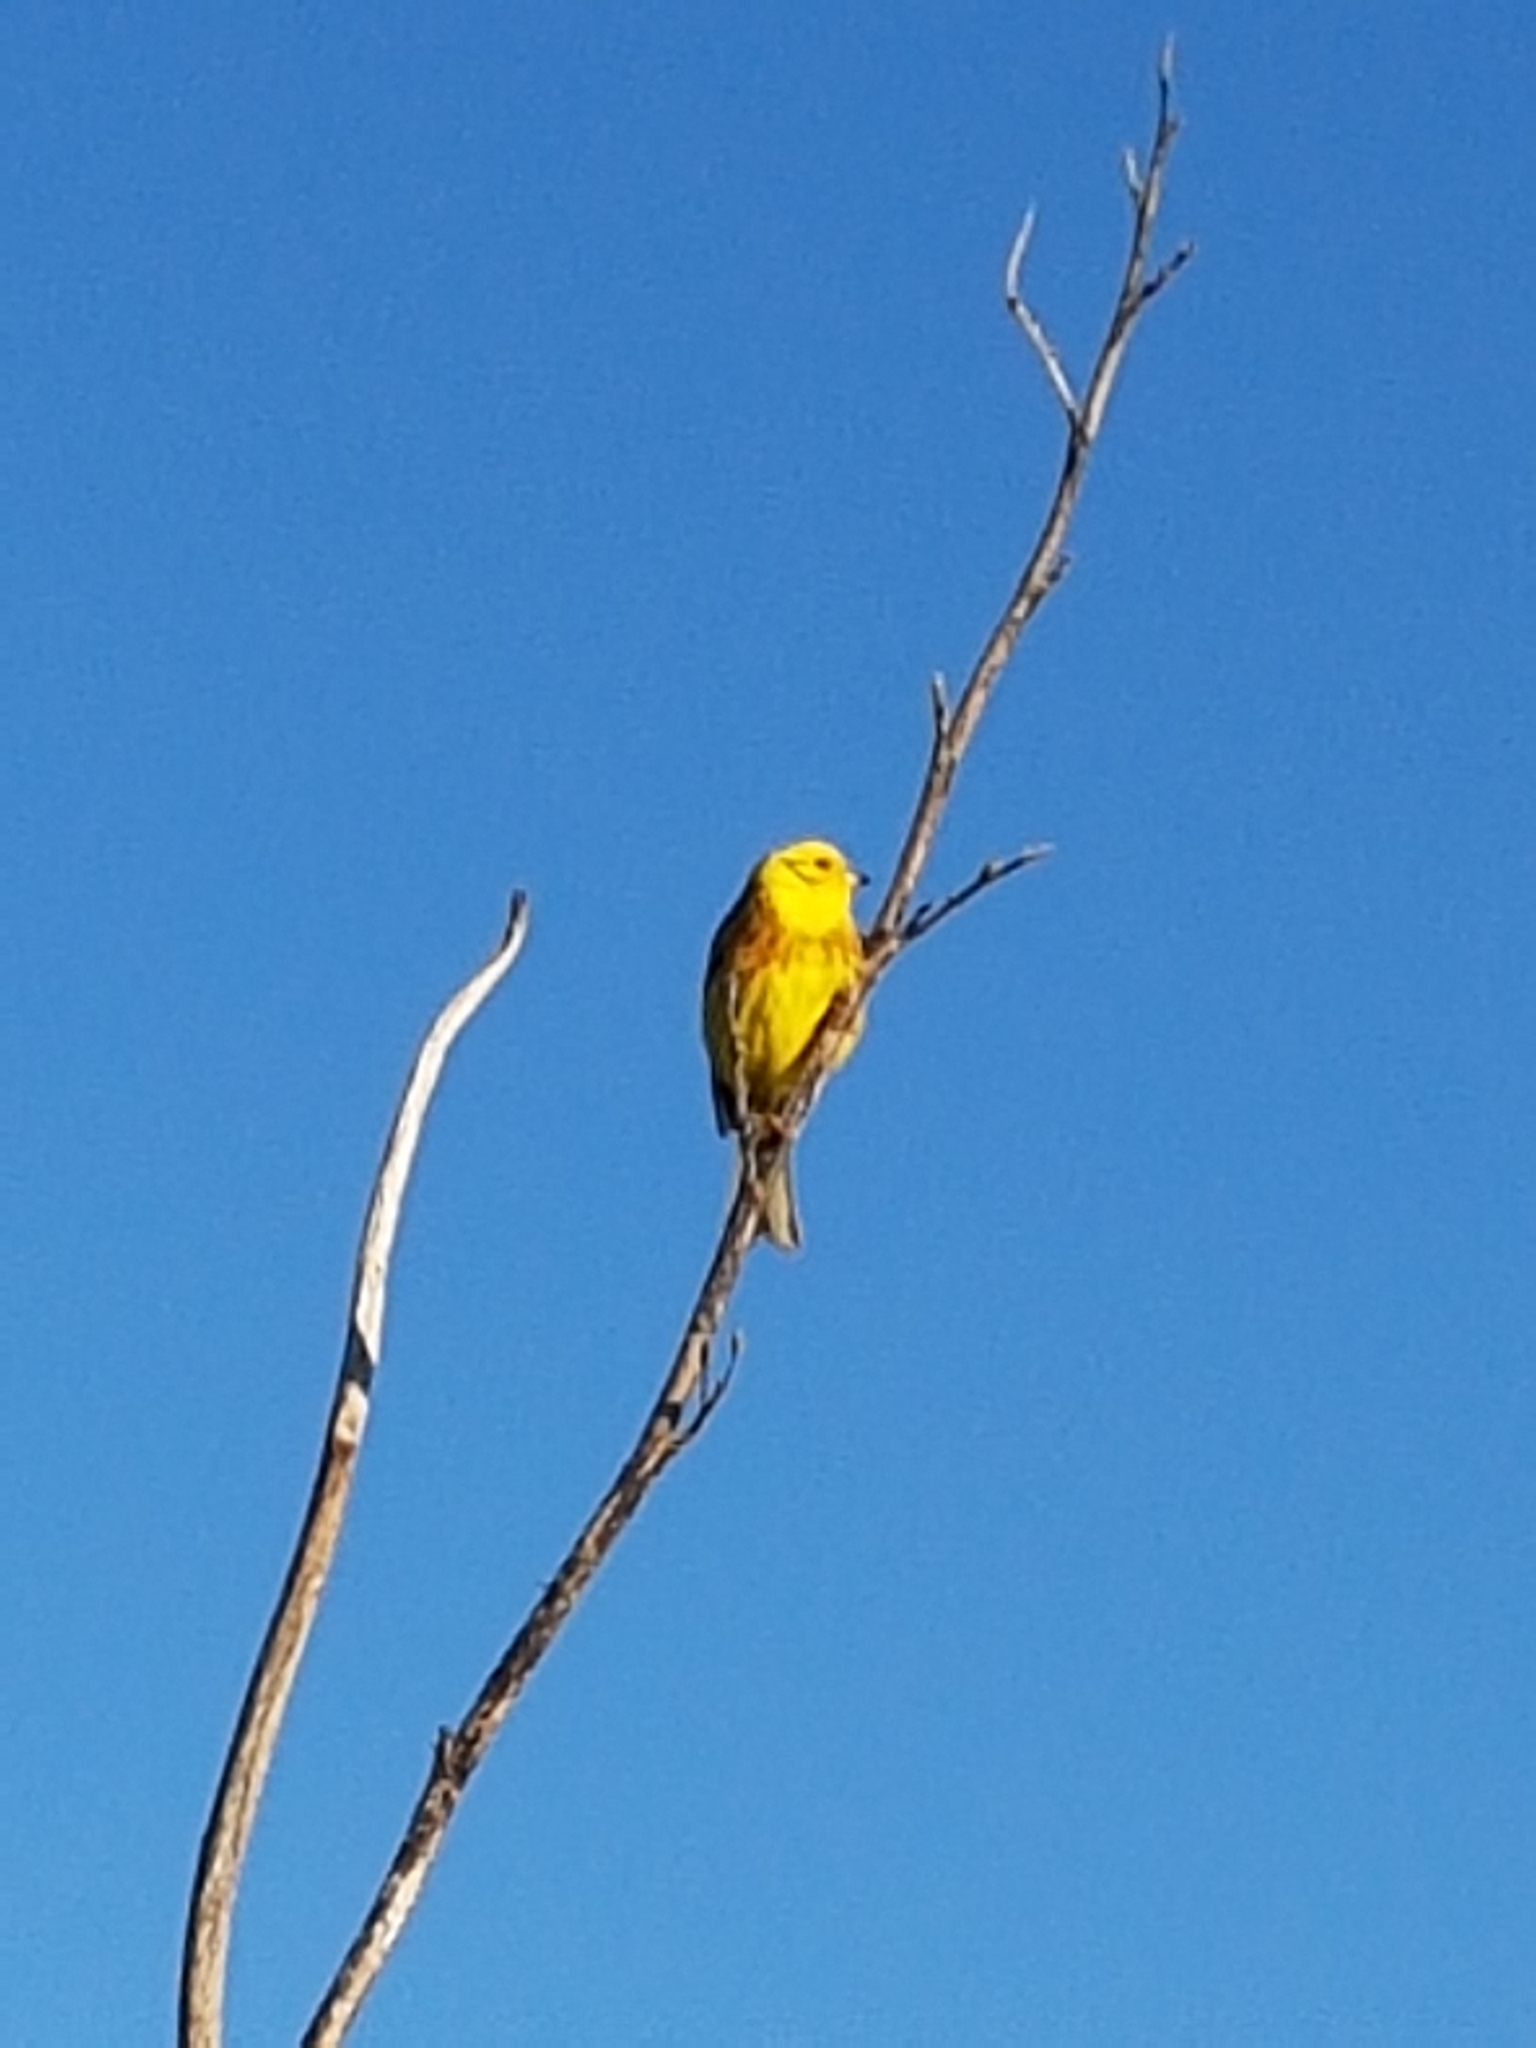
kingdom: Animalia
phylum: Chordata
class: Aves
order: Passeriformes
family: Emberizidae
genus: Emberiza
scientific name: Emberiza citrinella
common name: Yellowhammer
